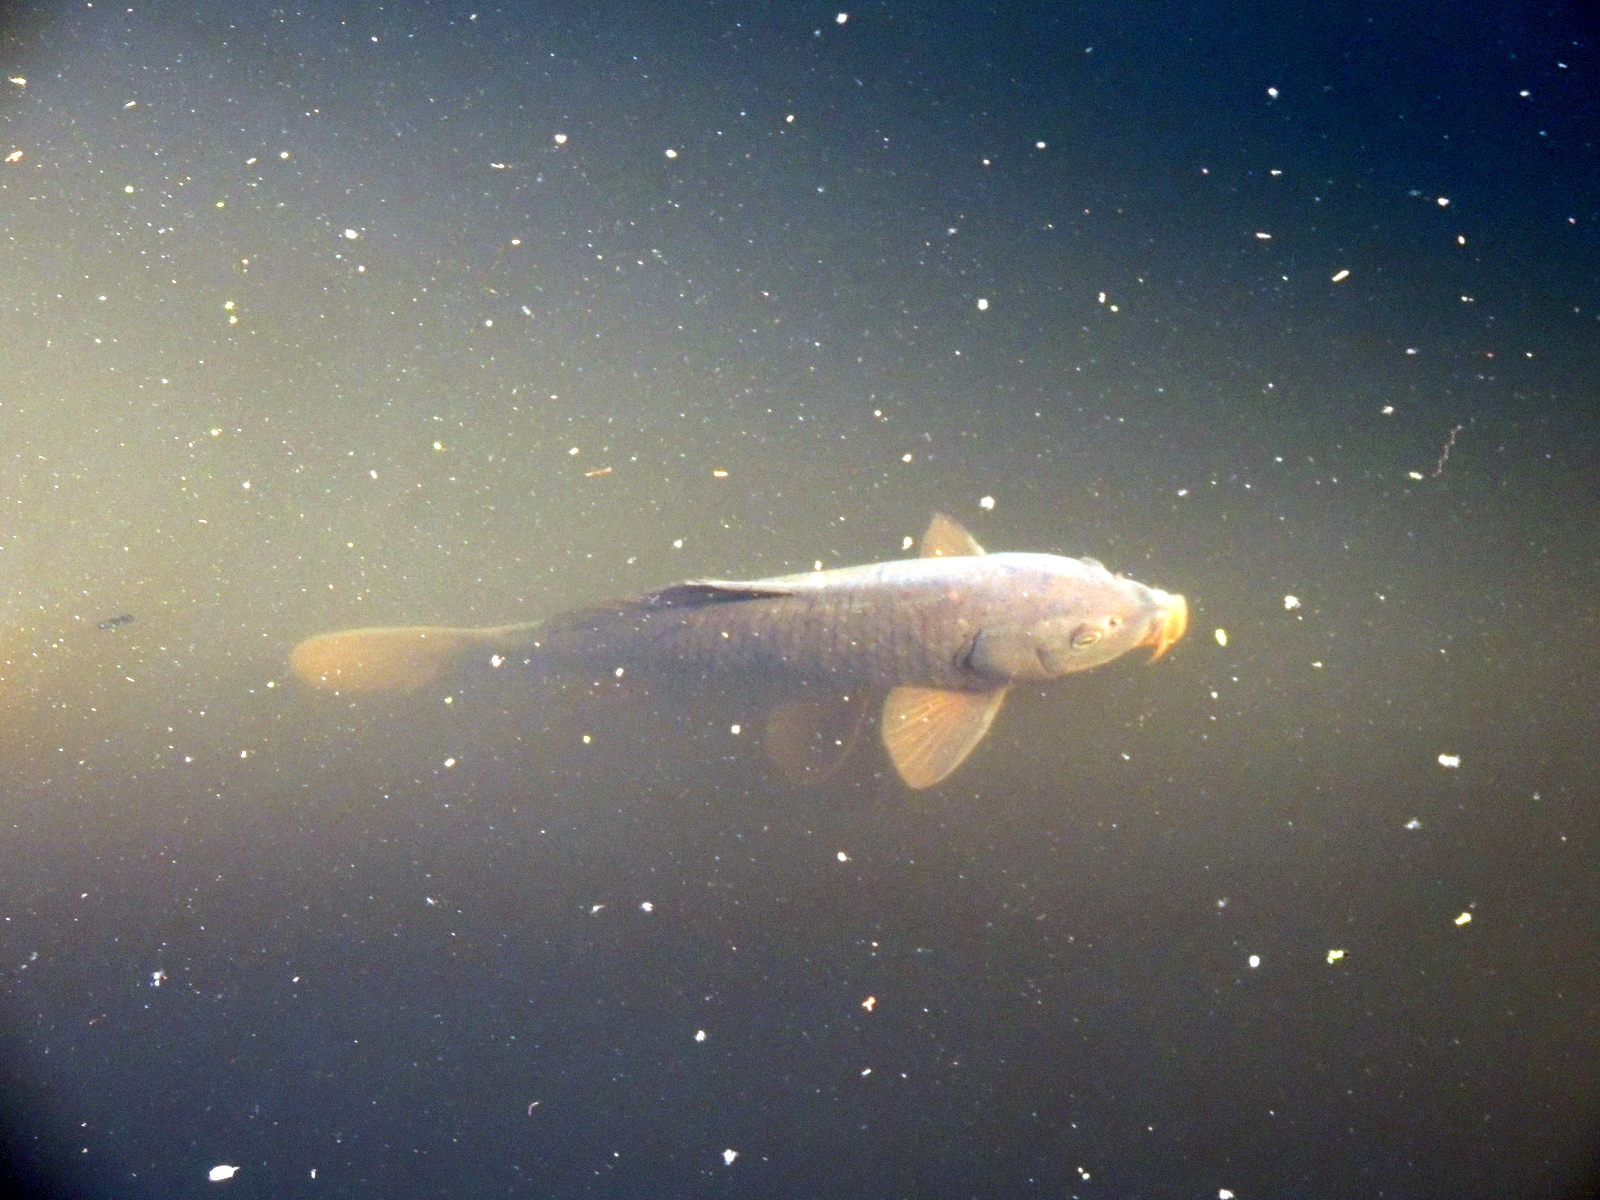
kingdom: Animalia
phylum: Chordata
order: Cypriniformes
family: Cyprinidae
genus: Cyprinus
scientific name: Cyprinus carpio
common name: Common carp
